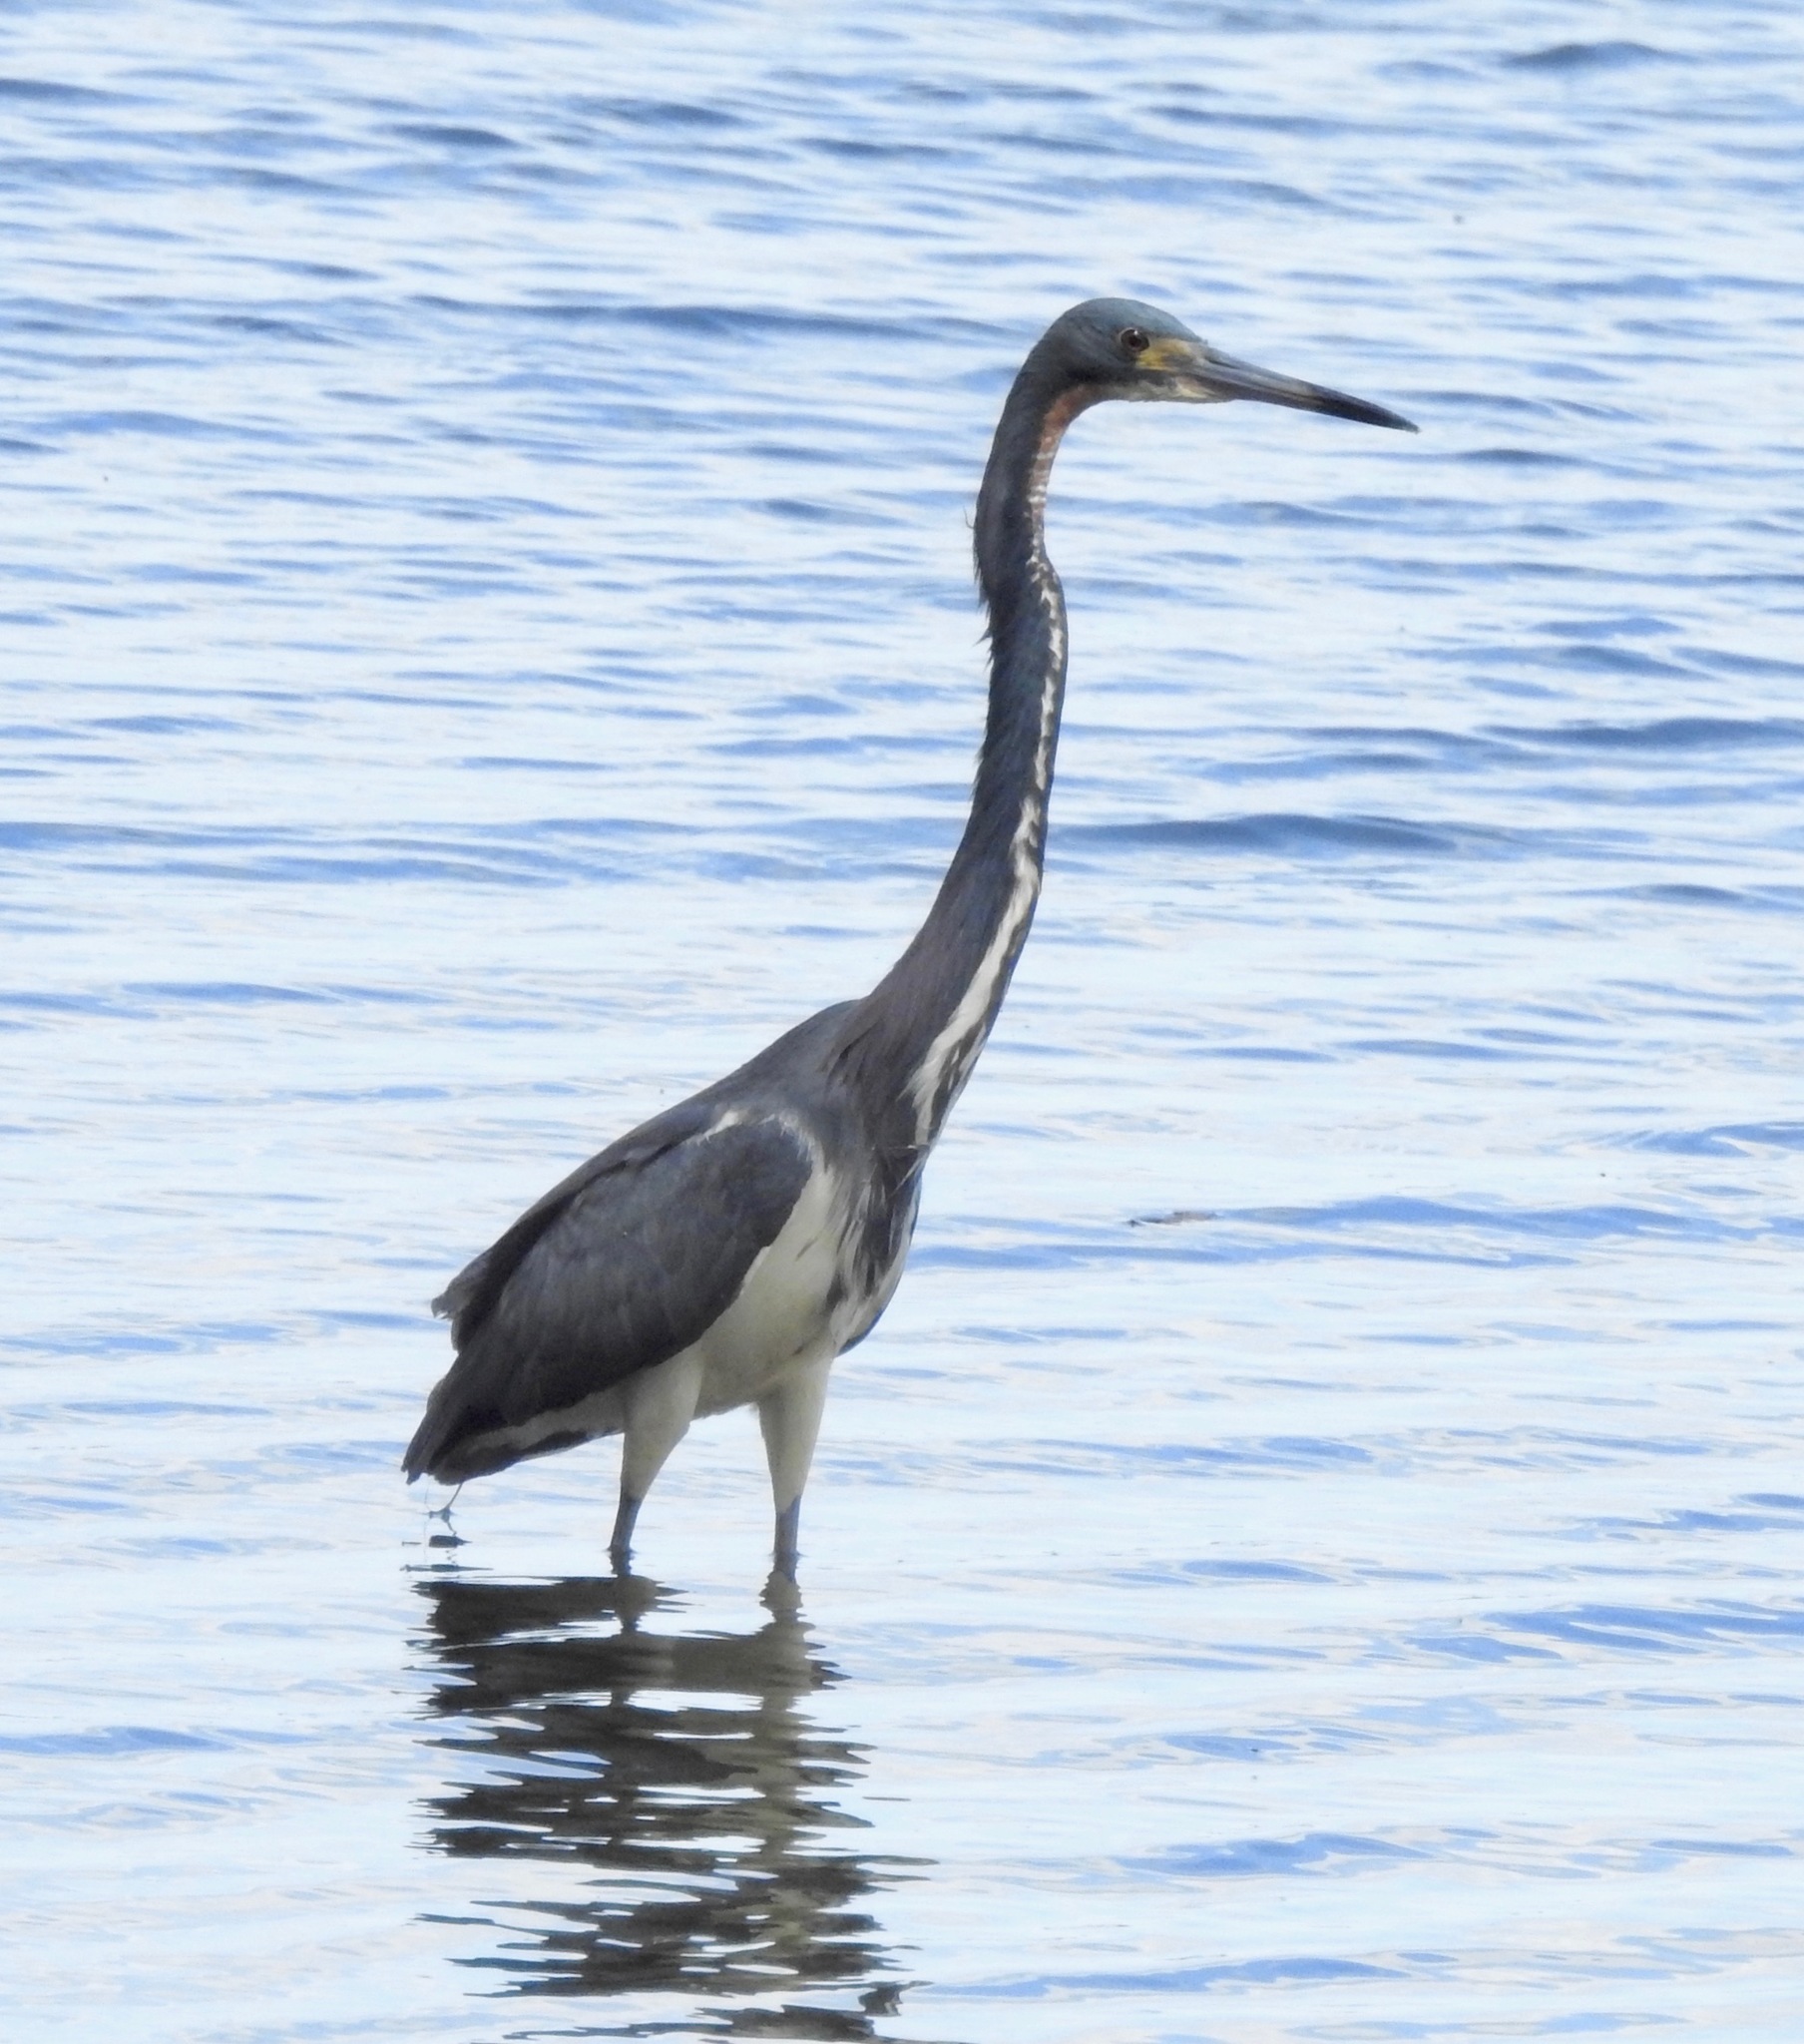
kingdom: Animalia
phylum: Chordata
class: Aves
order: Pelecaniformes
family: Ardeidae
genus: Egretta
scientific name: Egretta tricolor
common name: Tricolored heron
